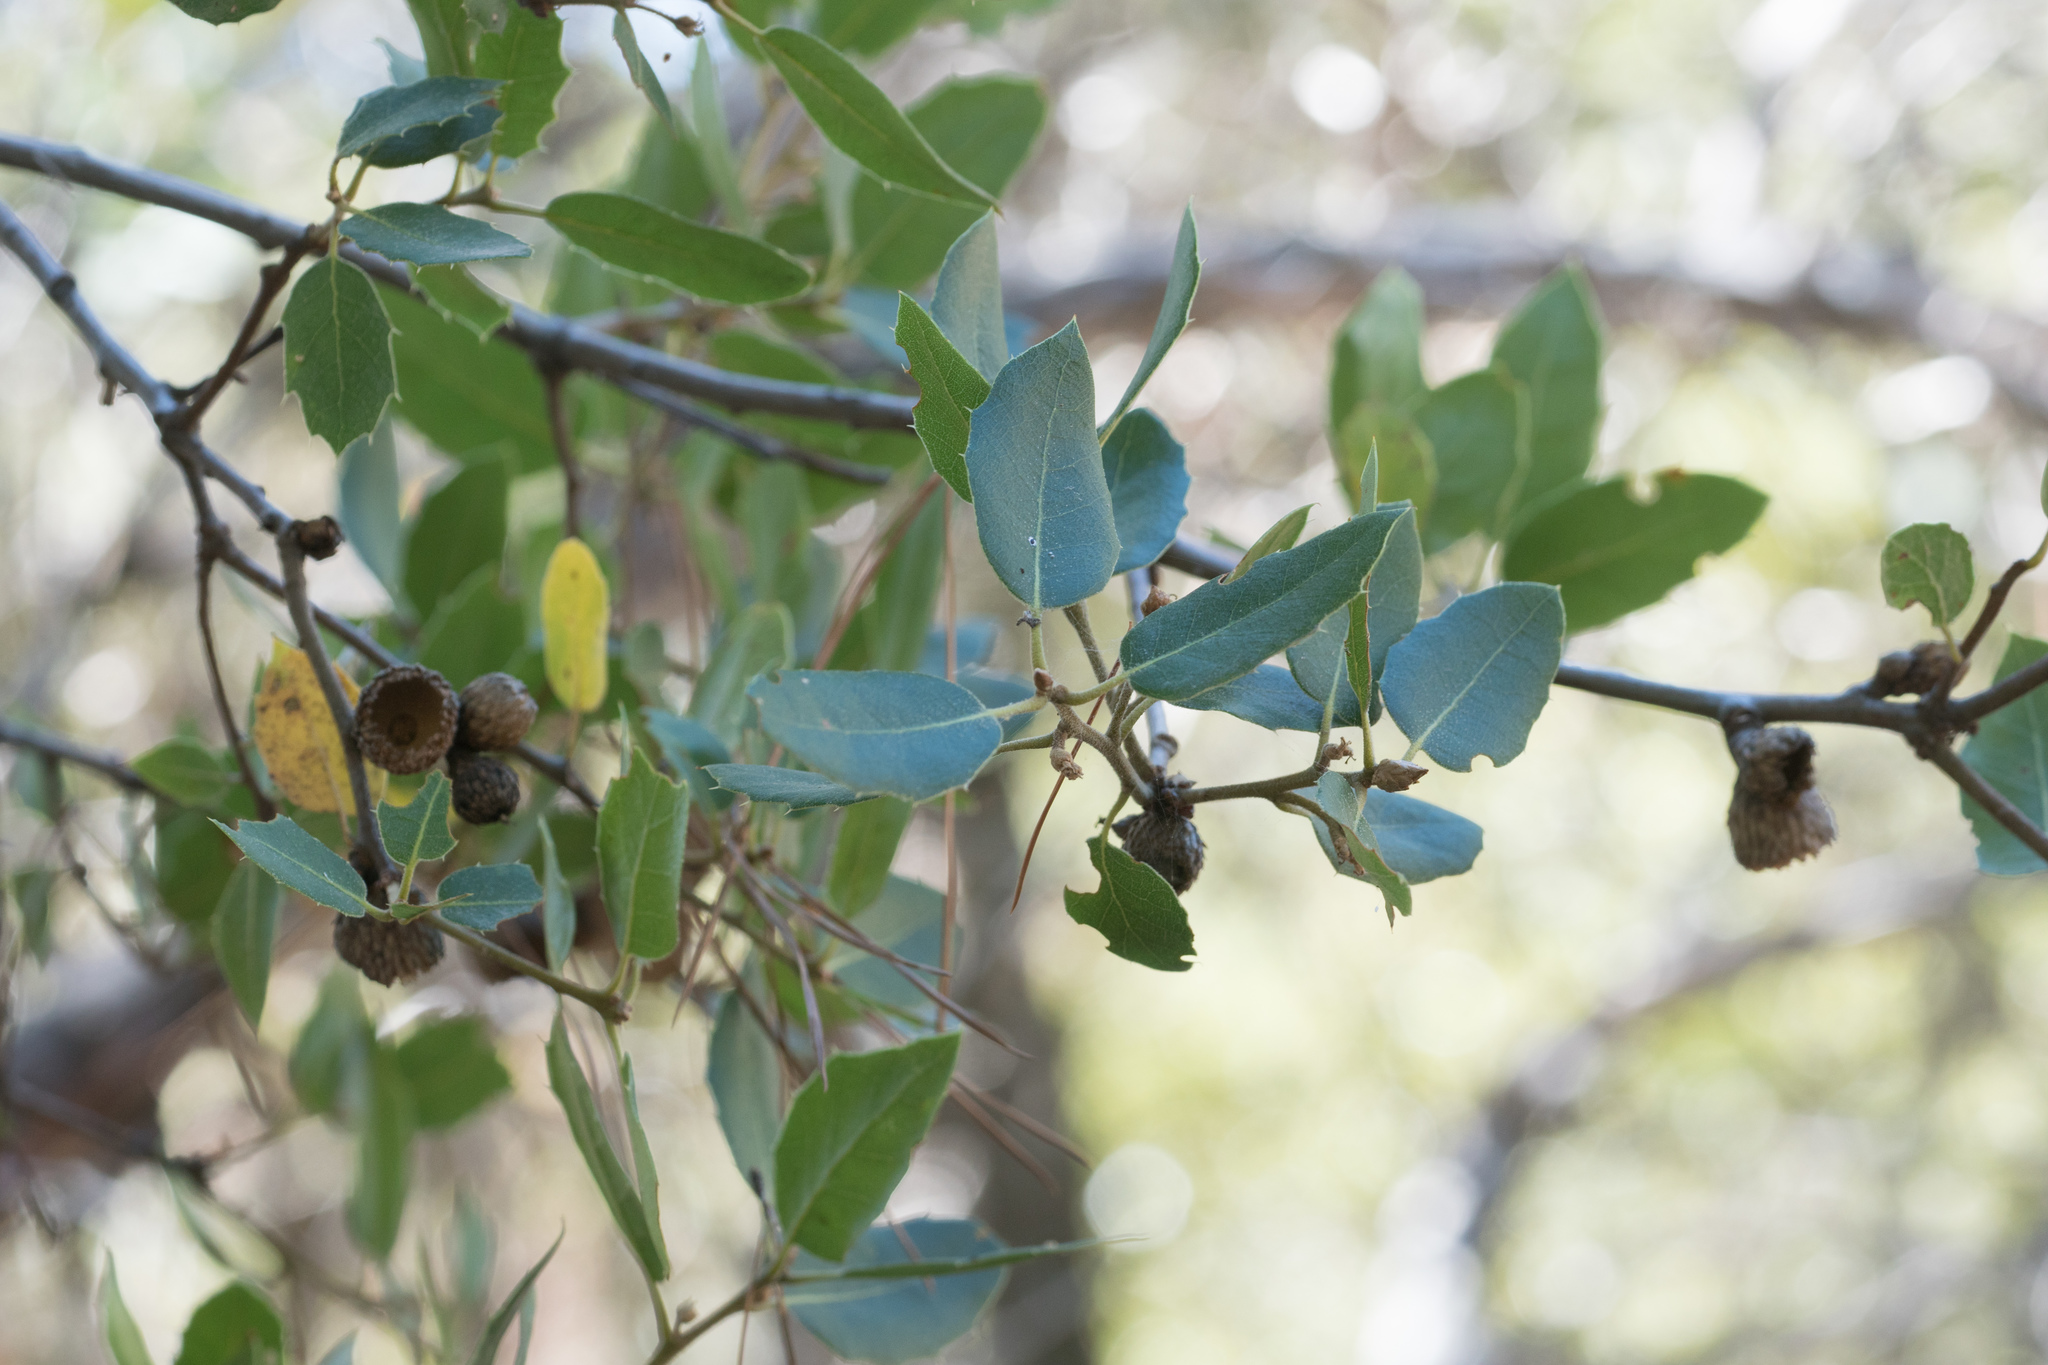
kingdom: Plantae
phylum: Tracheophyta
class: Magnoliopsida
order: Fagales
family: Fagaceae
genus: Quercus
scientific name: Quercus wislizeni
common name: Interior live oak
